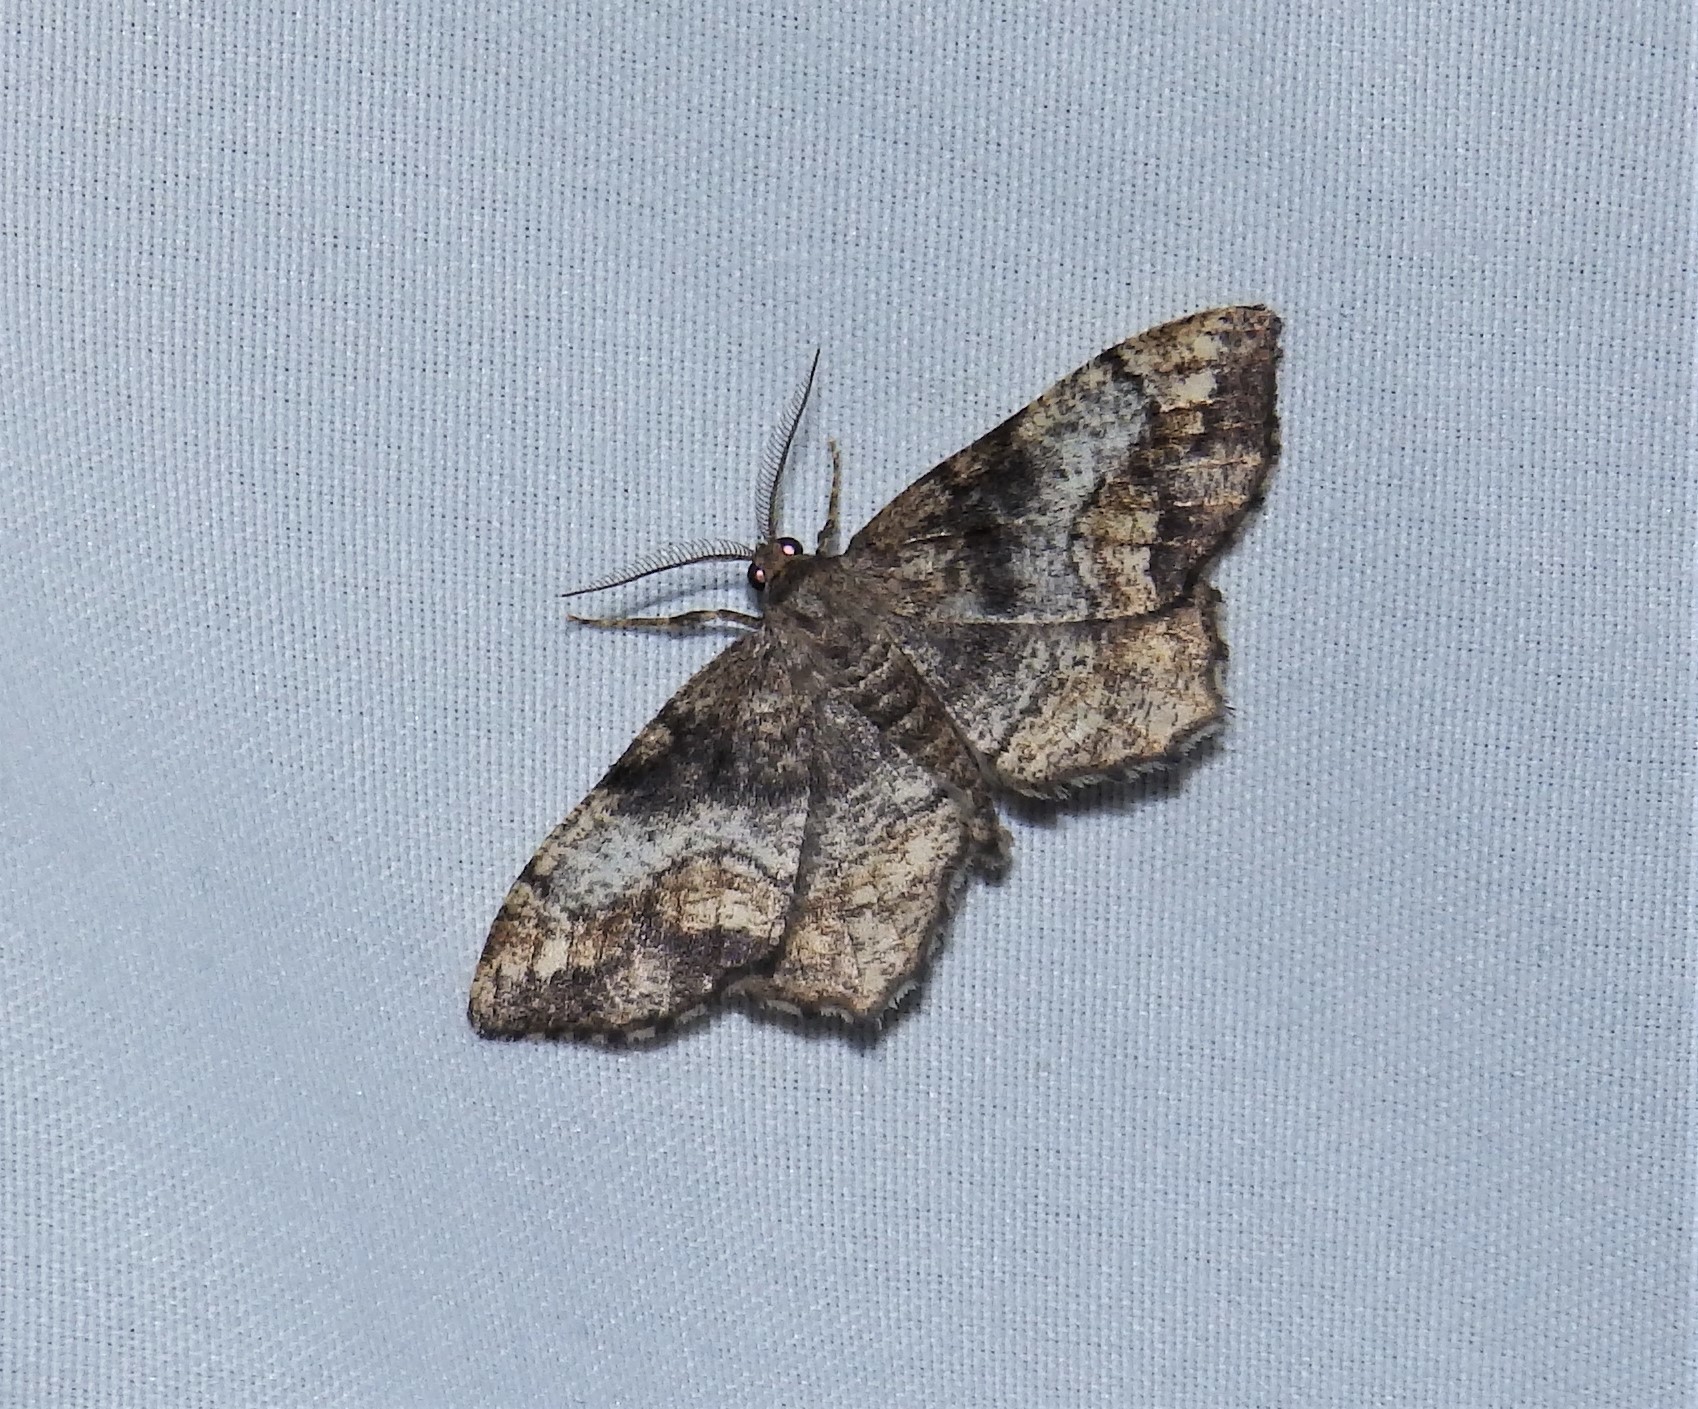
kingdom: Animalia
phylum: Arthropoda
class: Insecta
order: Lepidoptera
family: Geometridae
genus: Hypagyrtis
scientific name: Hypagyrtis unipunctata
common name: One-spotted variant
